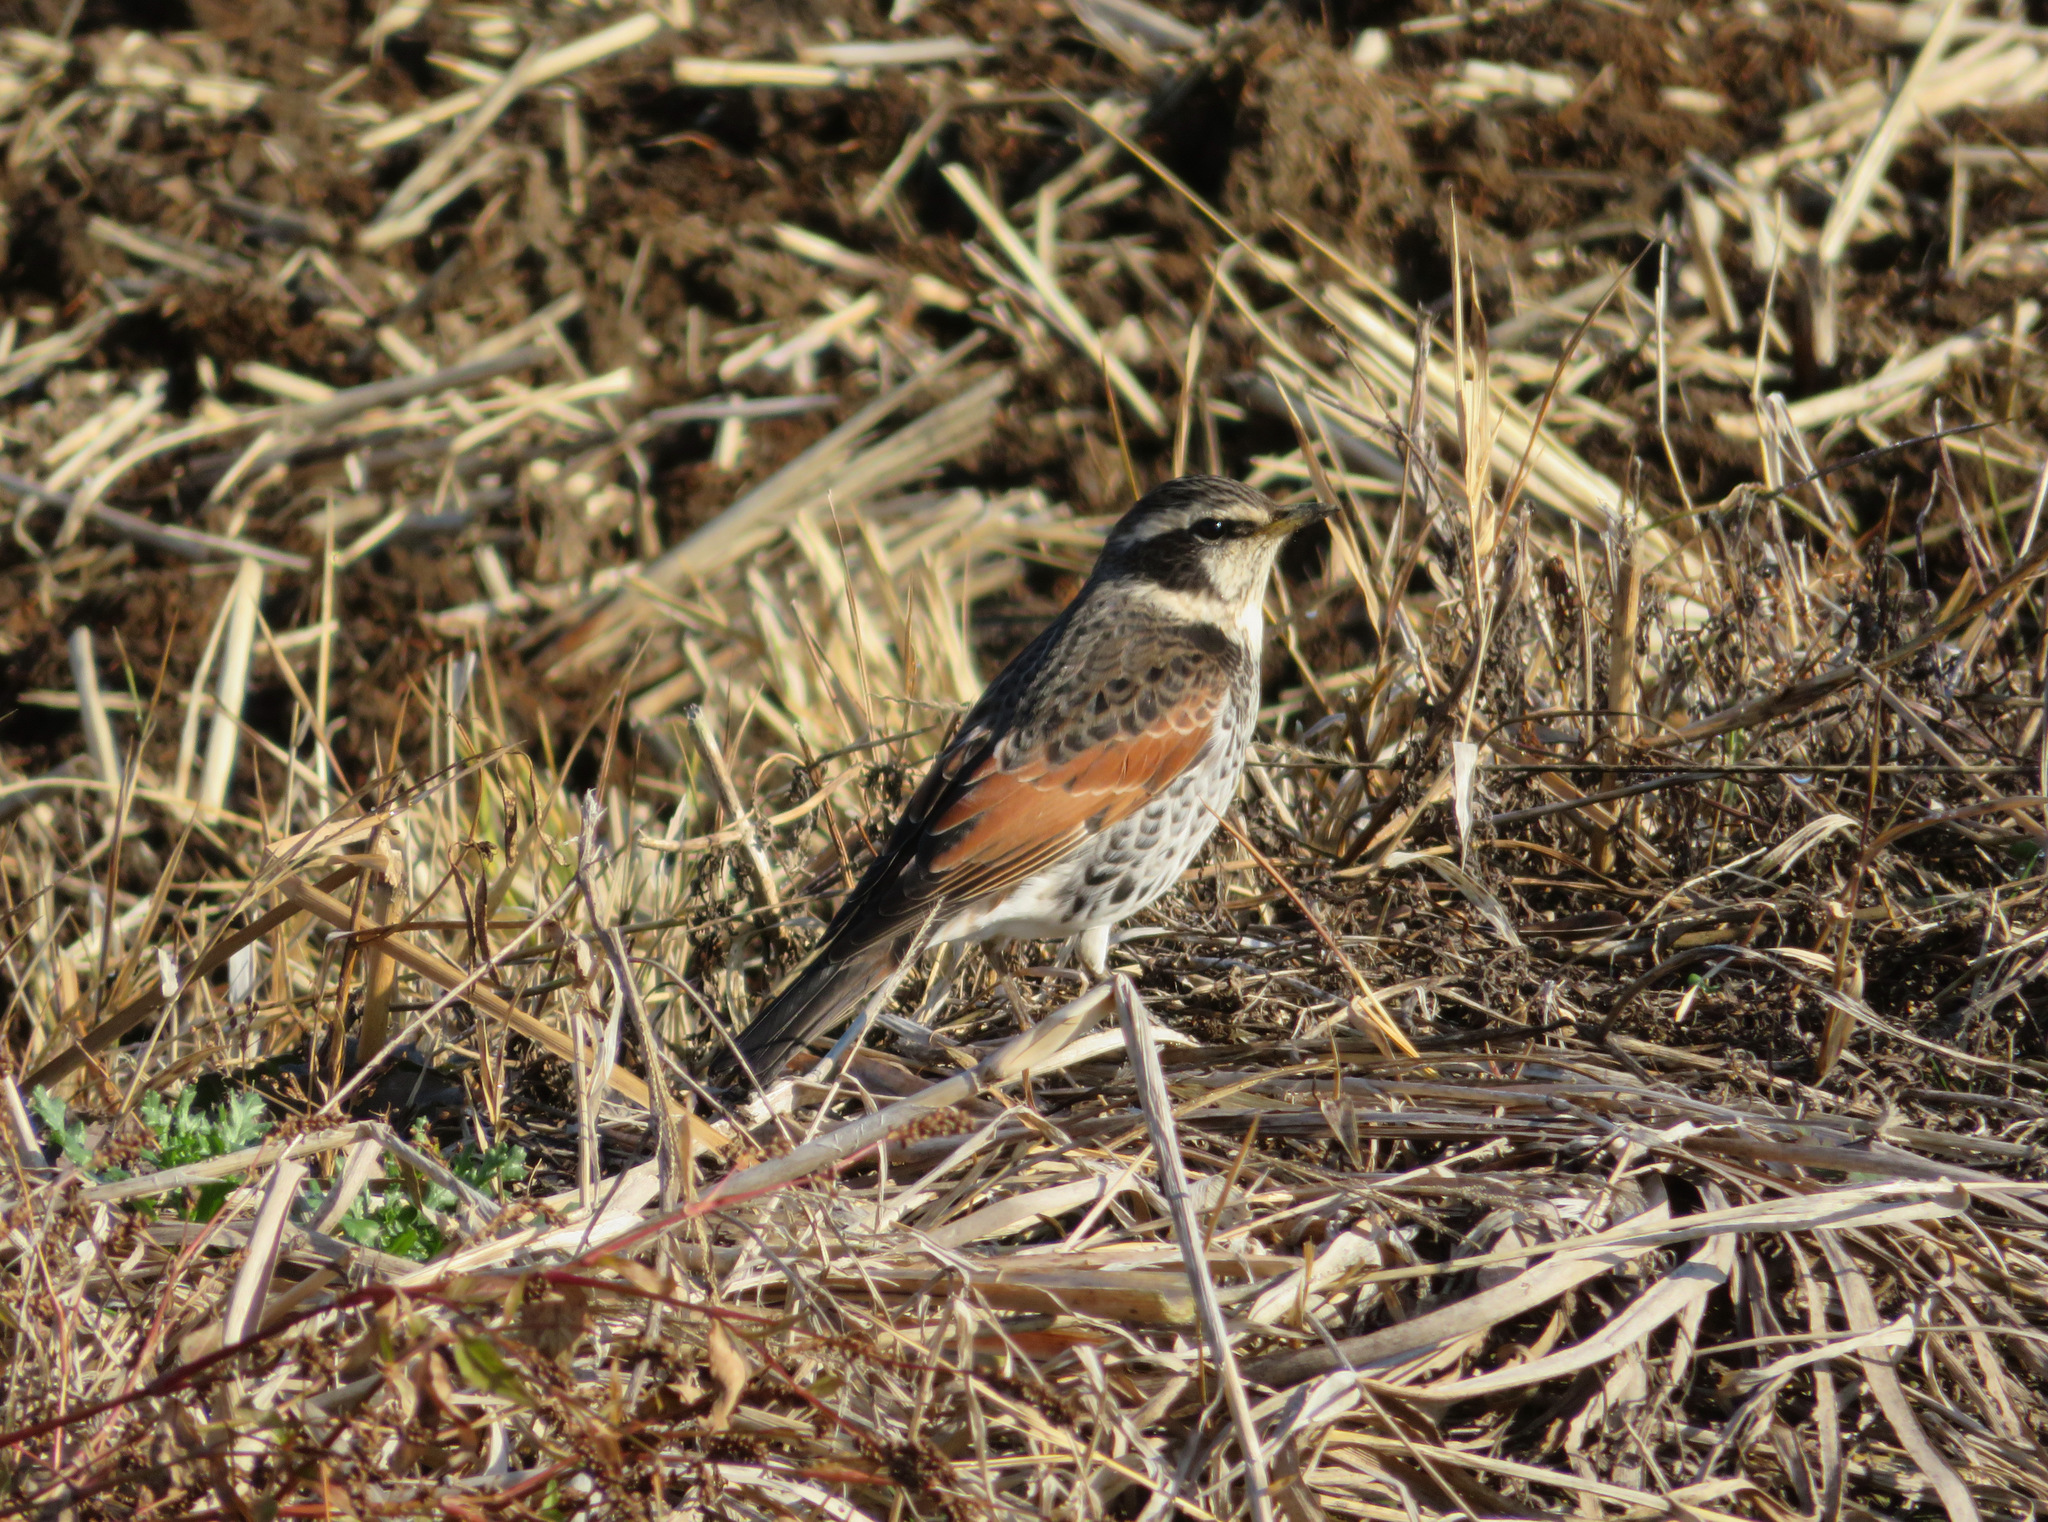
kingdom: Animalia
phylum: Chordata
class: Aves
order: Passeriformes
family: Turdidae
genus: Turdus
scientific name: Turdus eunomus
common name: Dusky thrush
